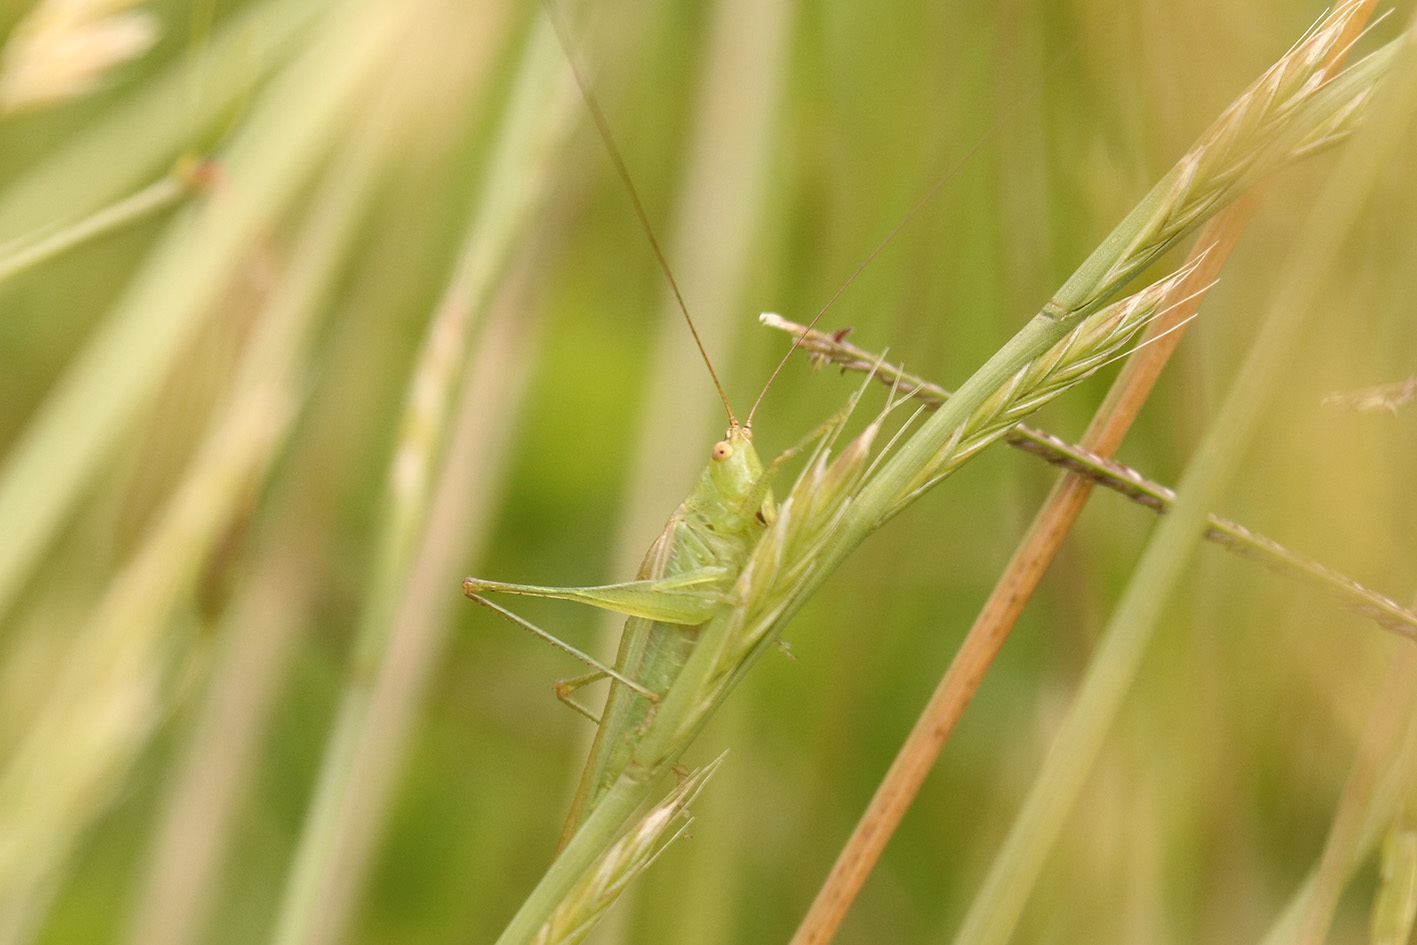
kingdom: Animalia
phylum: Arthropoda
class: Insecta
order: Orthoptera
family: Tettigoniidae
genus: Conocephalus
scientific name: Conocephalus longipes
